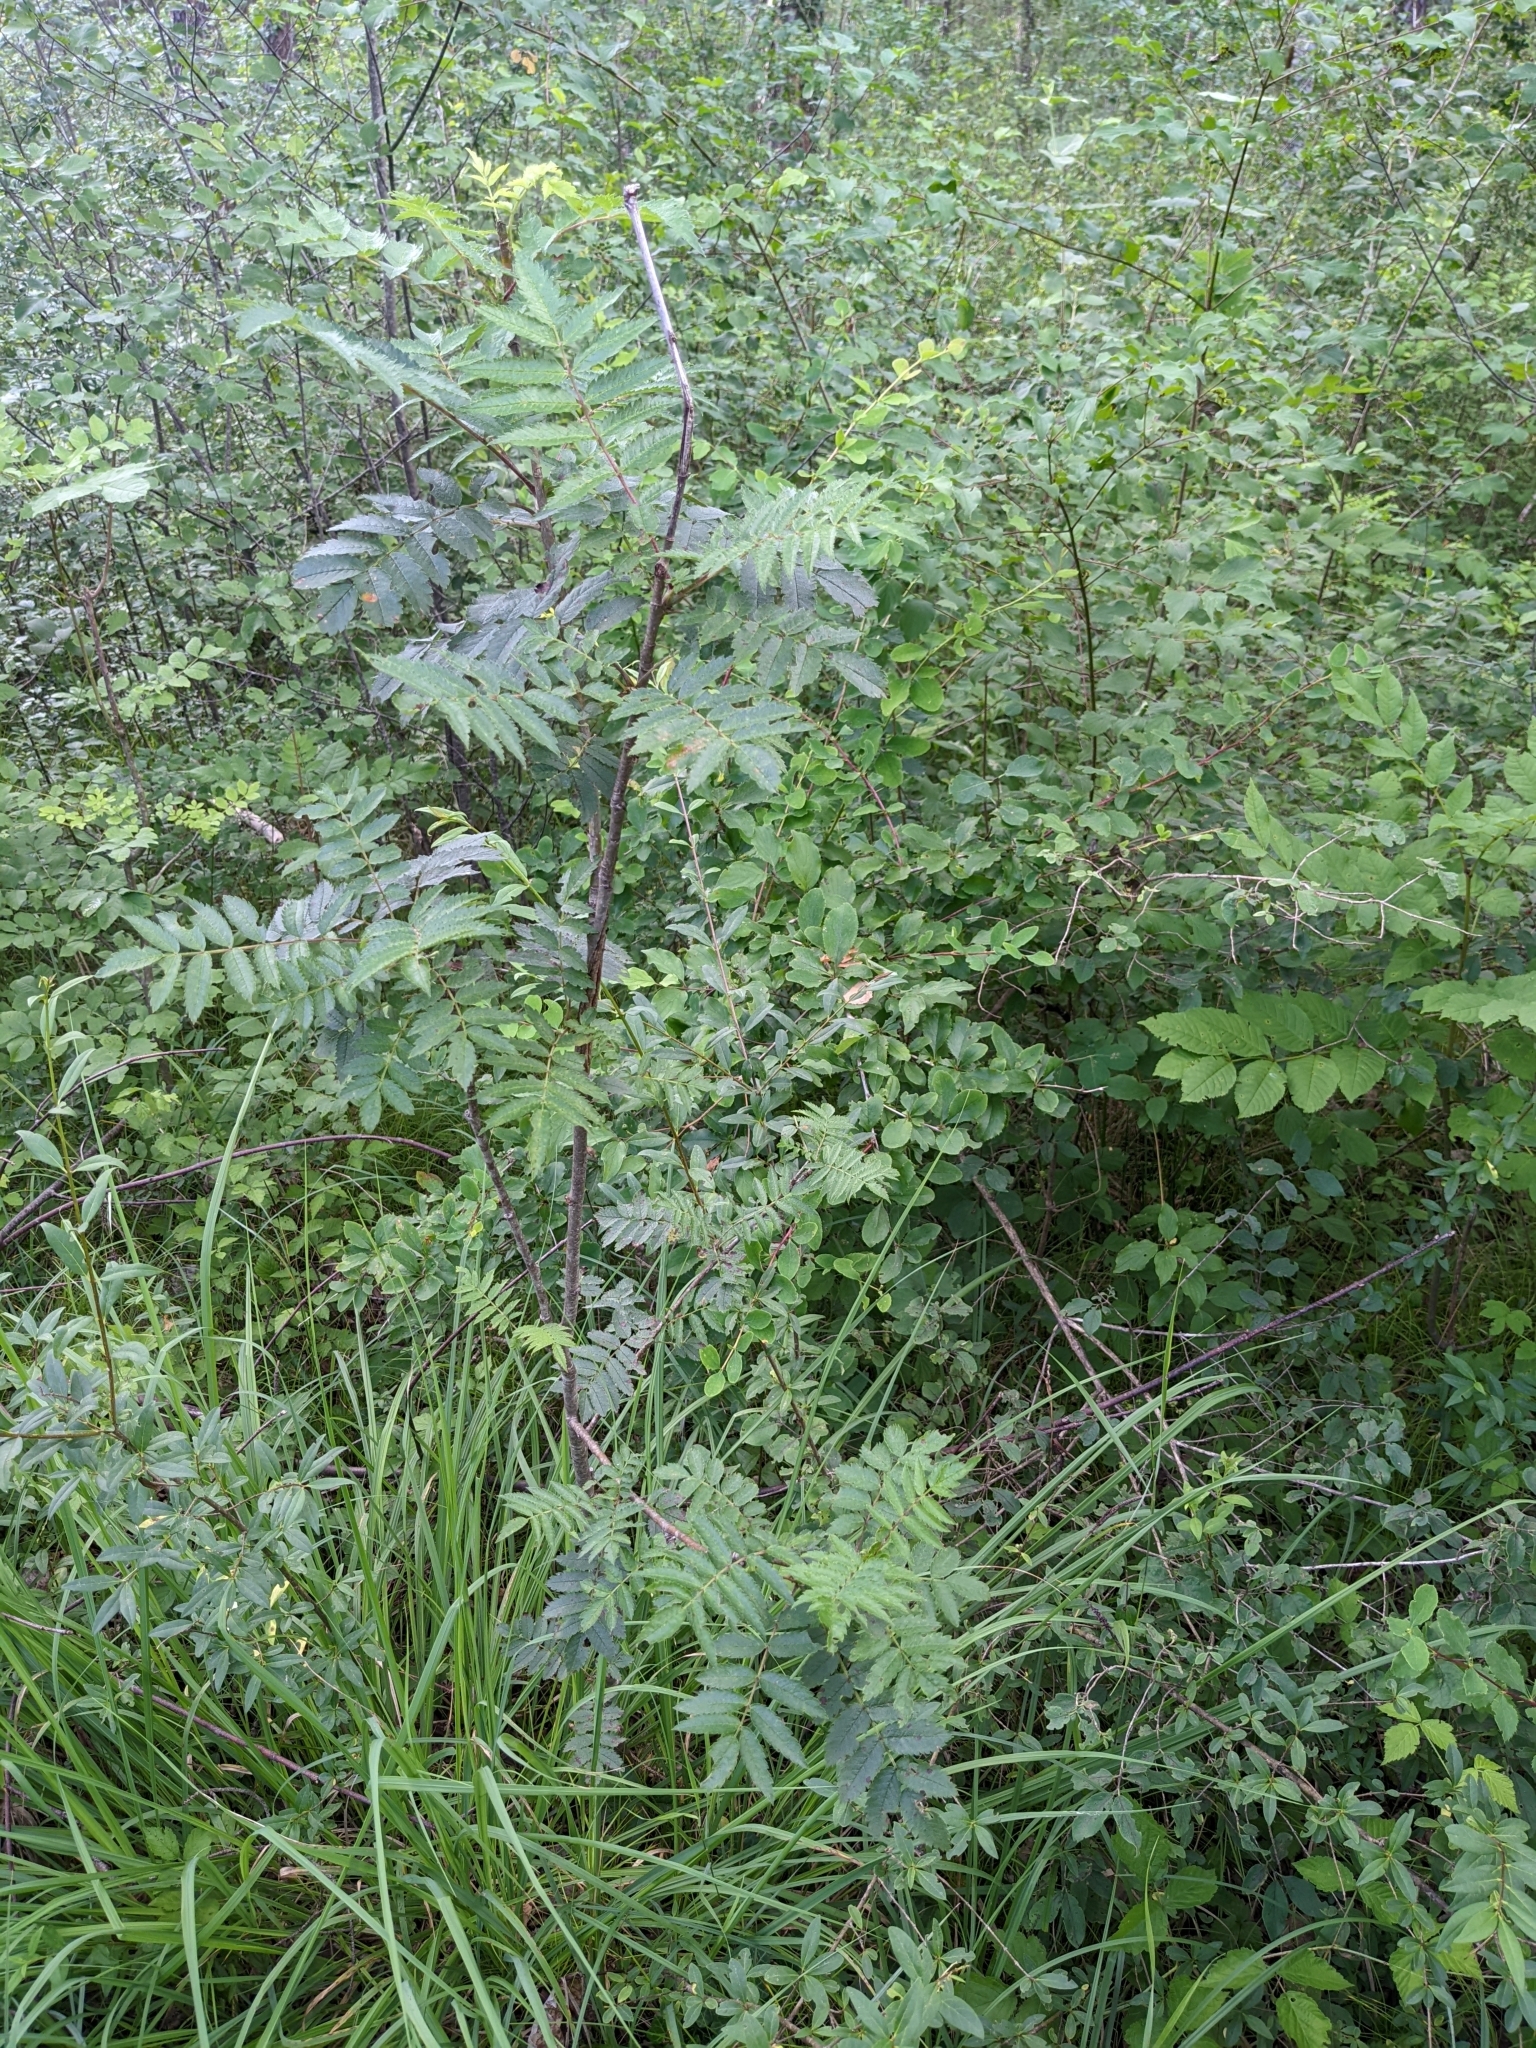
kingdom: Plantae
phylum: Tracheophyta
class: Magnoliopsida
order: Rosales
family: Rosaceae
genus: Sorbus
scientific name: Sorbus aucuparia
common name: Rowan
